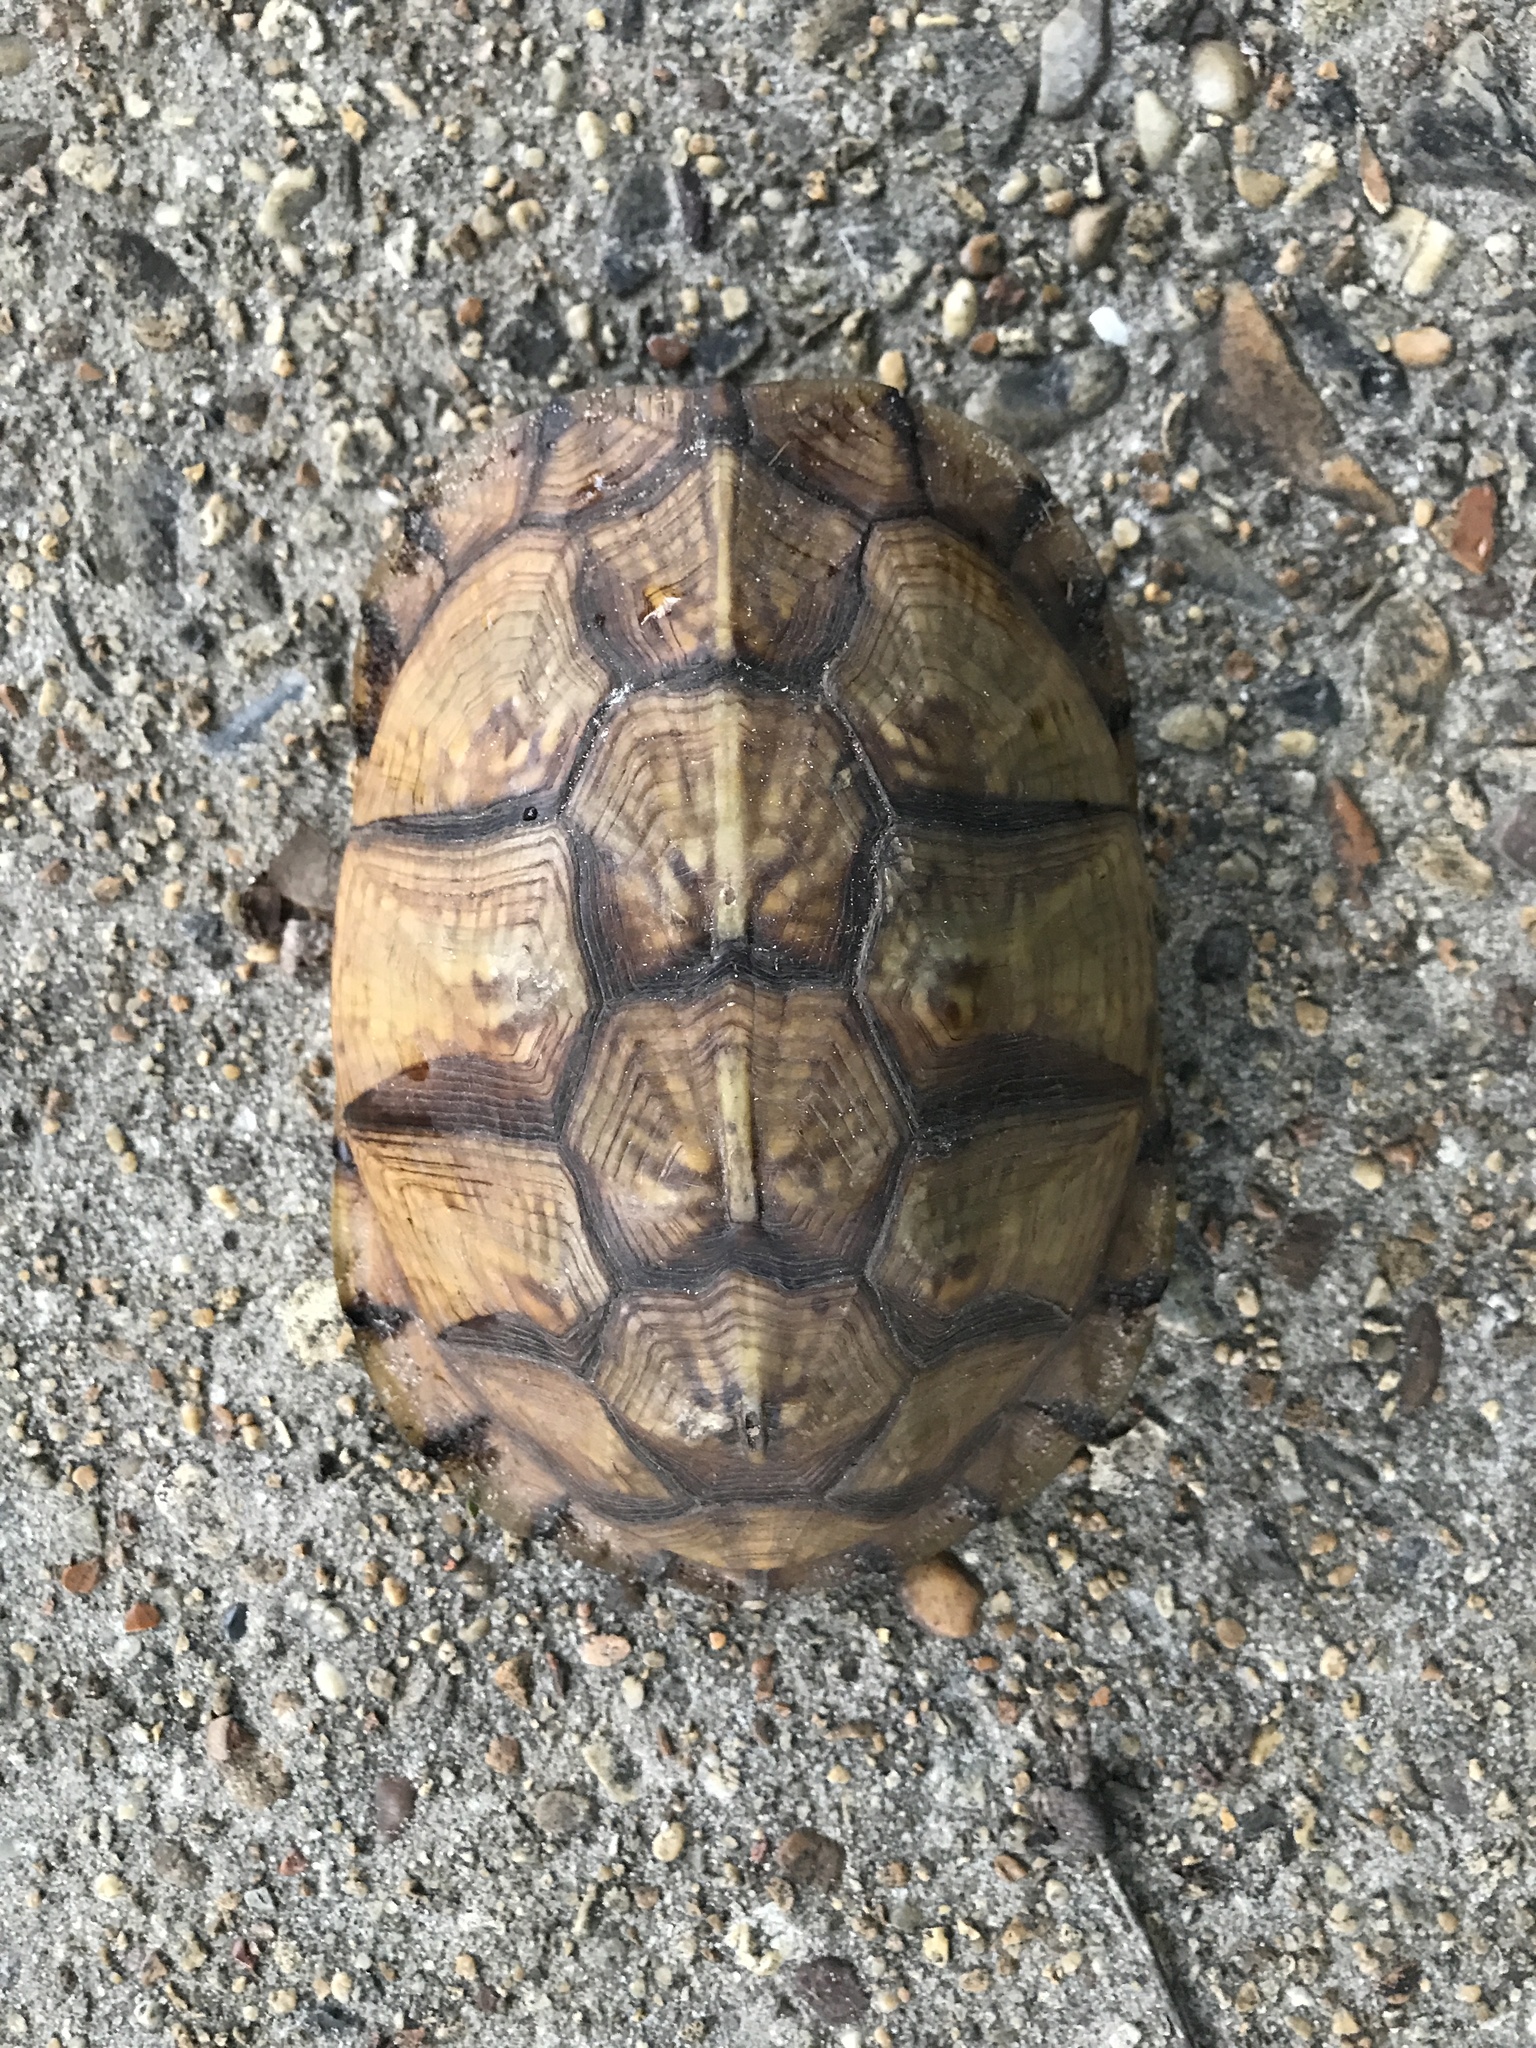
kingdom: Animalia
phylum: Chordata
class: Testudines
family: Emydidae
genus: Terrapene
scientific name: Terrapene carolina
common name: Common box turtle
